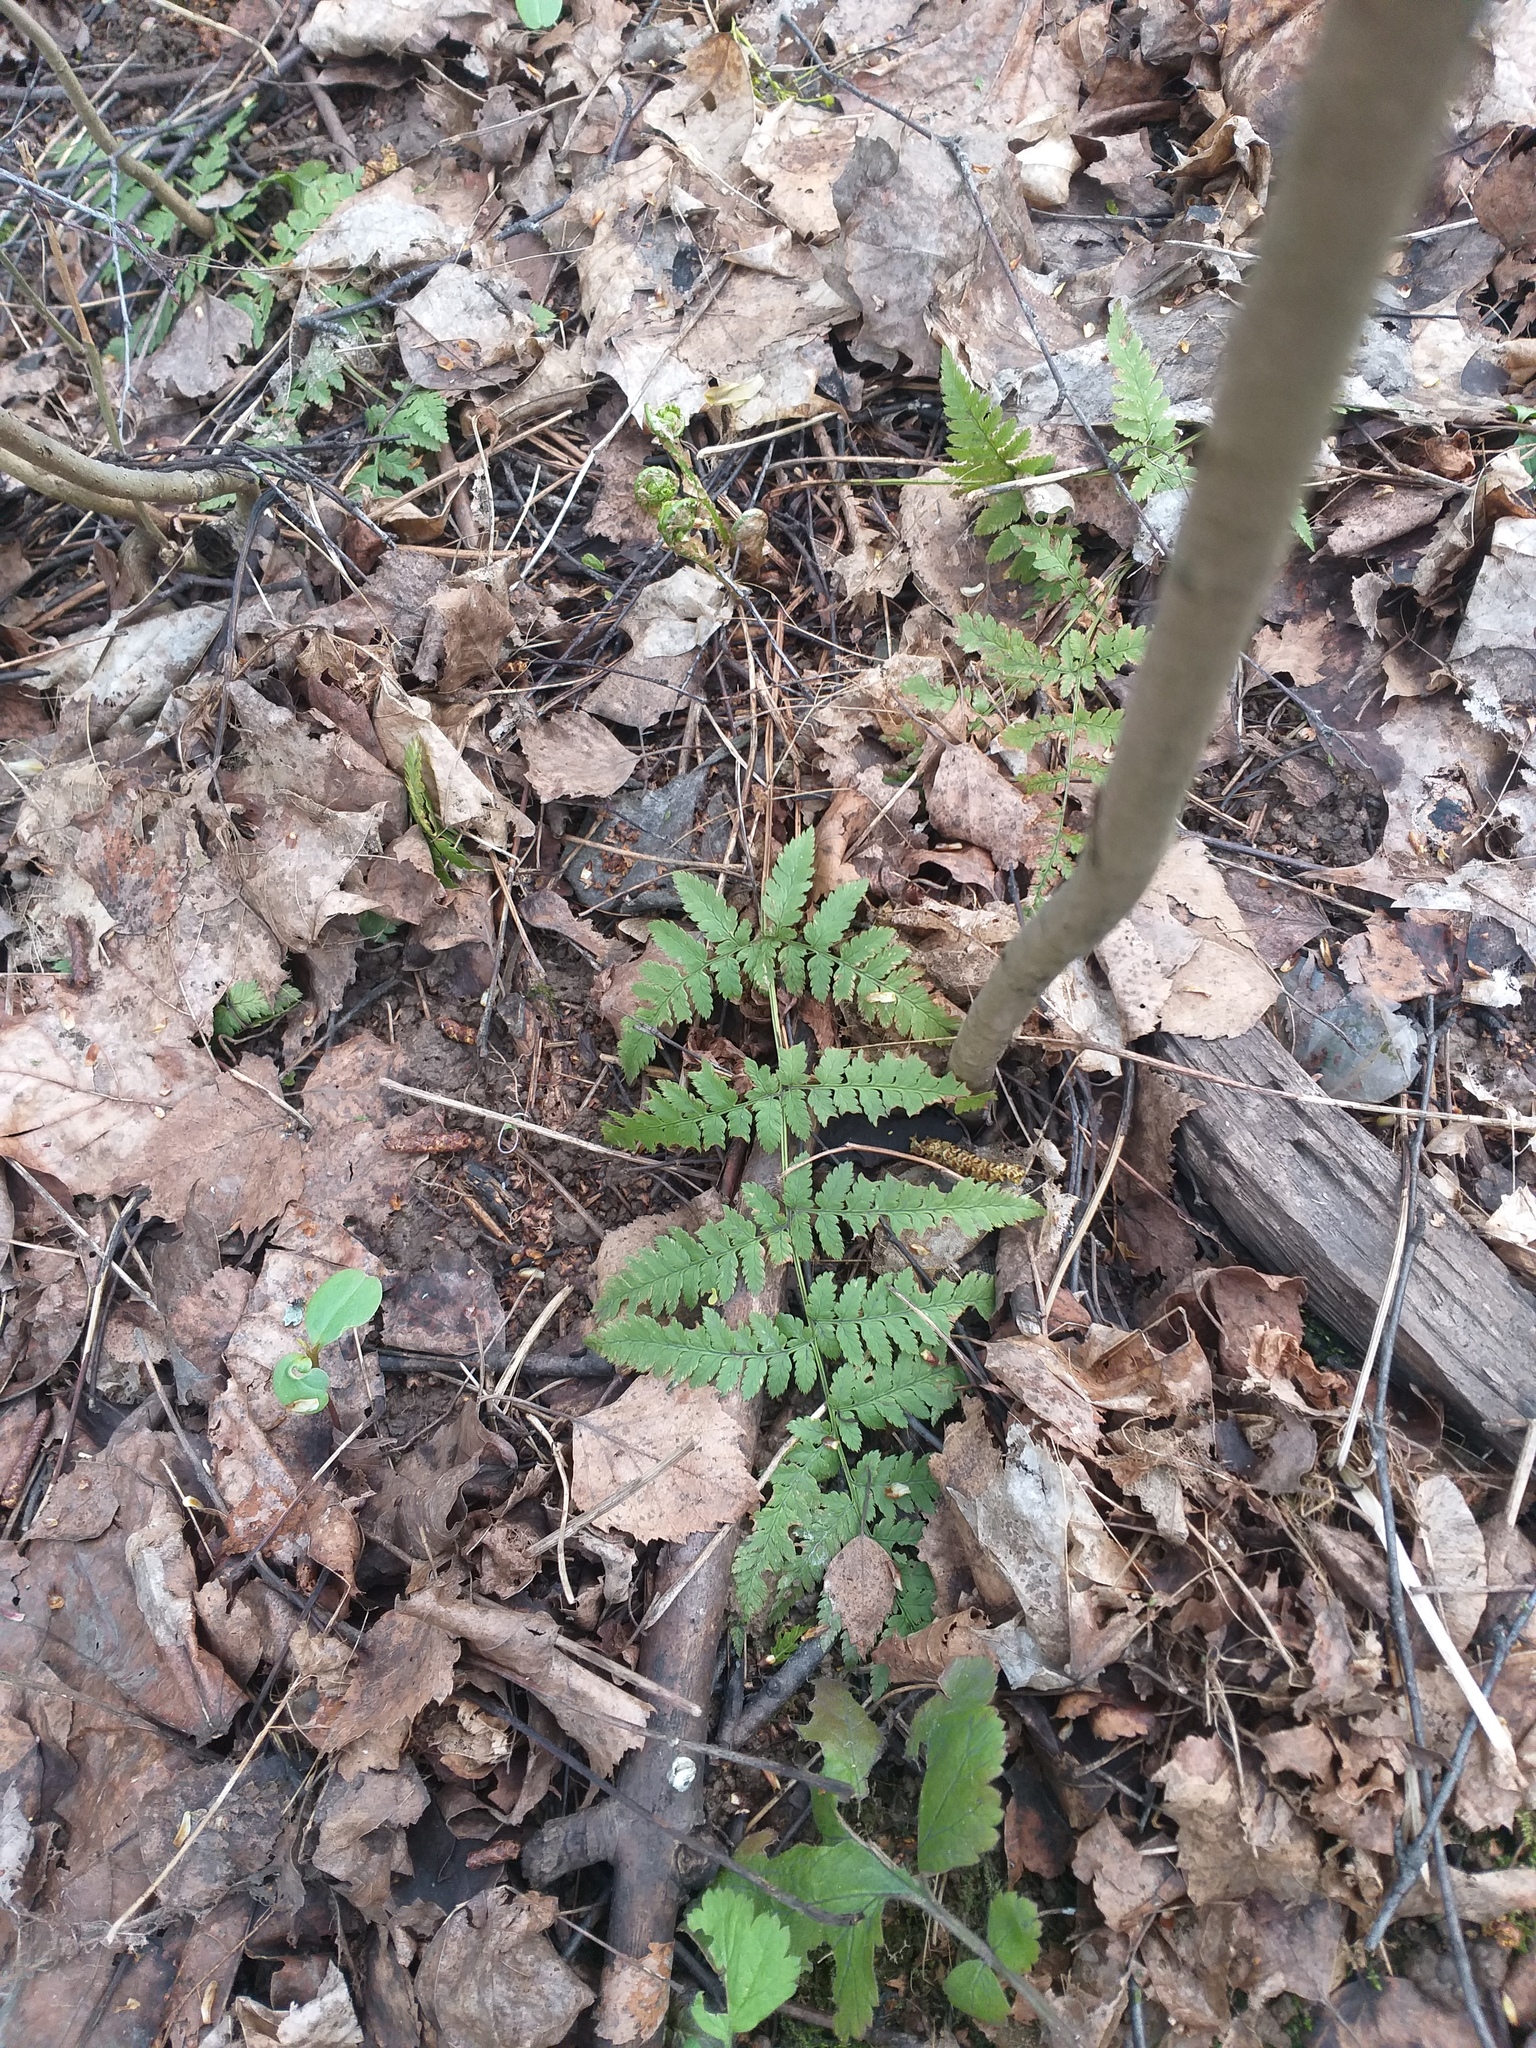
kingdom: Plantae
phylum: Tracheophyta
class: Polypodiopsida
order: Polypodiales
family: Dryopteridaceae
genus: Dryopteris
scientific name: Dryopteris carthusiana
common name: Narrow buckler-fern
